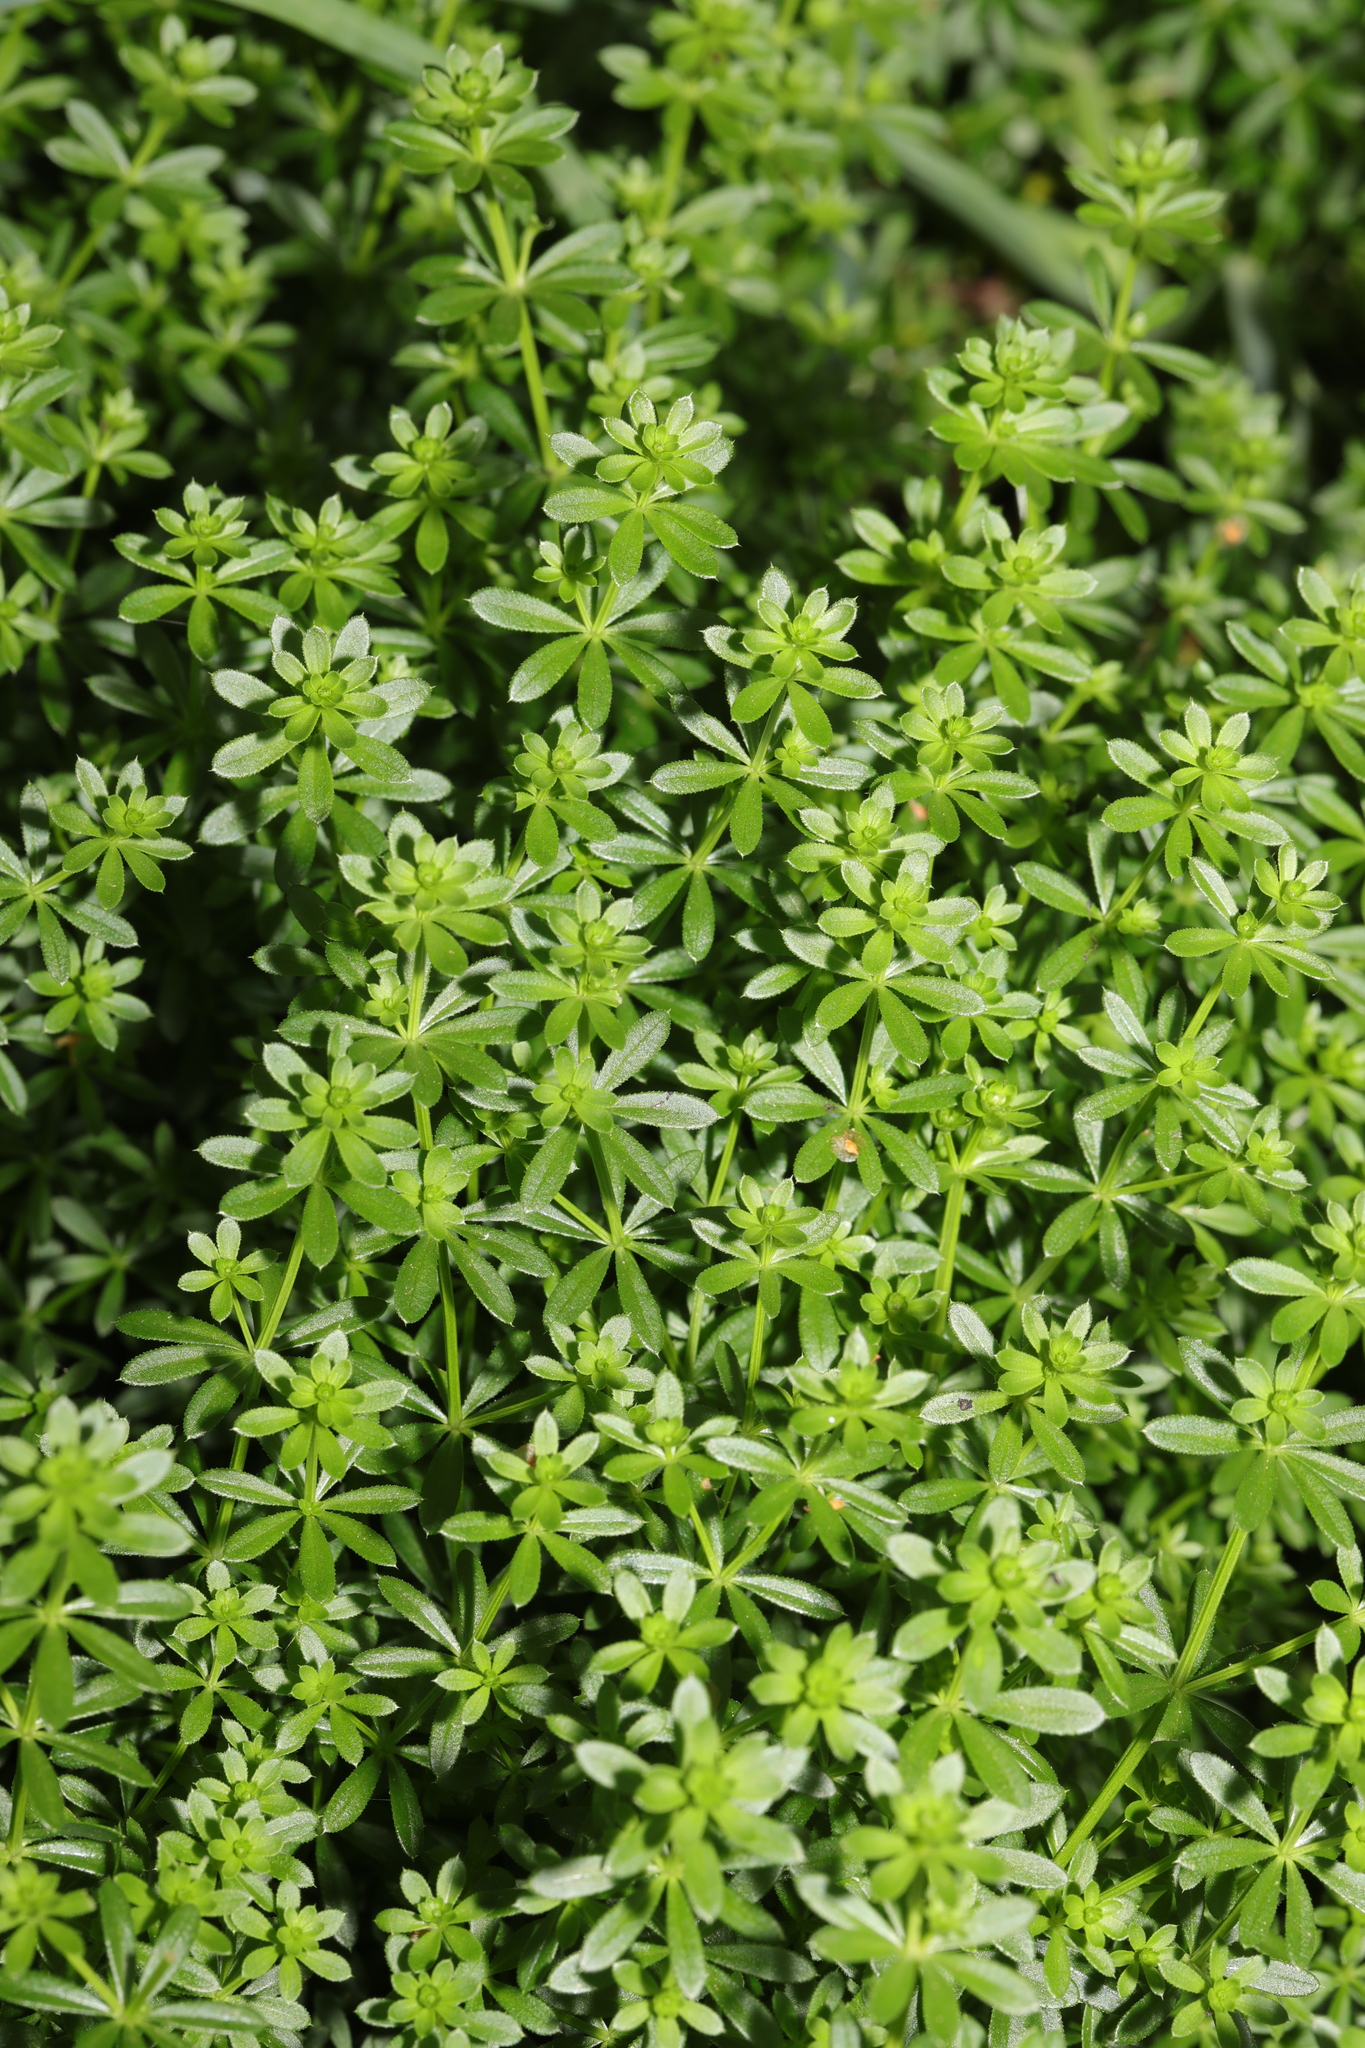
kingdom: Plantae
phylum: Tracheophyta
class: Magnoliopsida
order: Gentianales
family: Rubiaceae
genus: Galium
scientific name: Galium mollugo
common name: Hedge bedstraw
